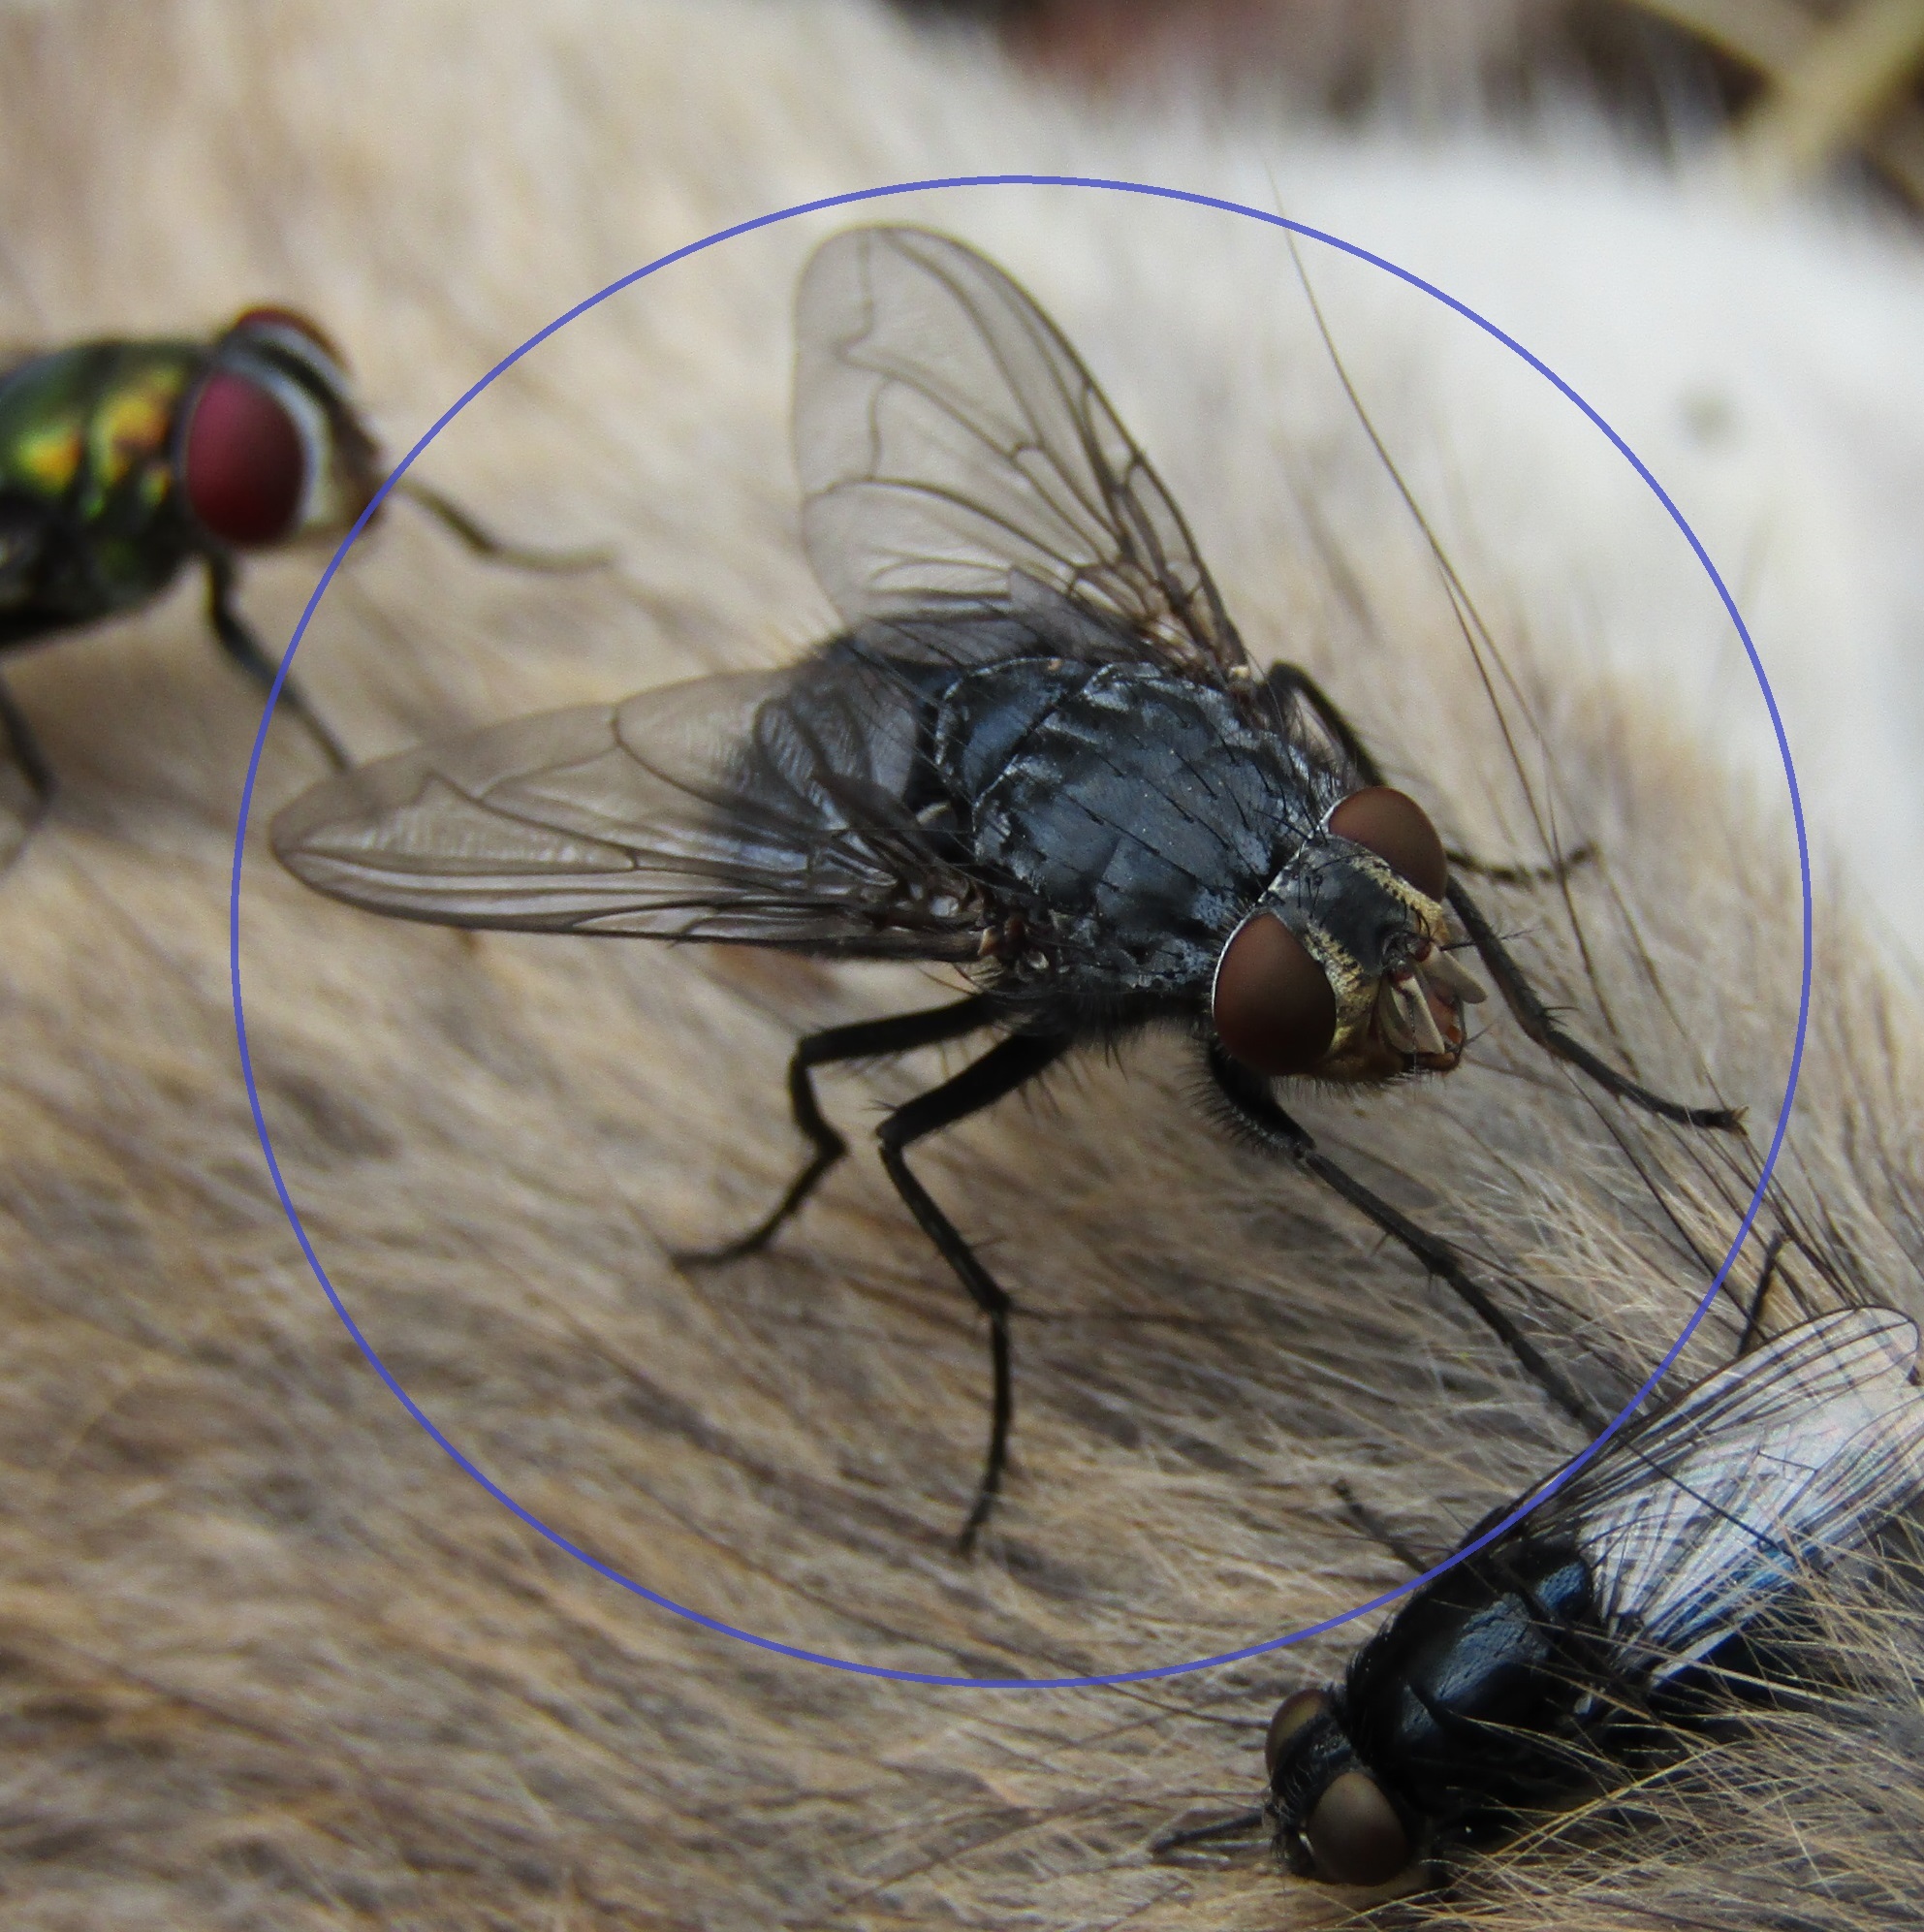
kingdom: Animalia
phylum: Arthropoda
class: Insecta
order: Diptera
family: Calliphoridae
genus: Calliphora
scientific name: Calliphora vicina
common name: Common blow flie
